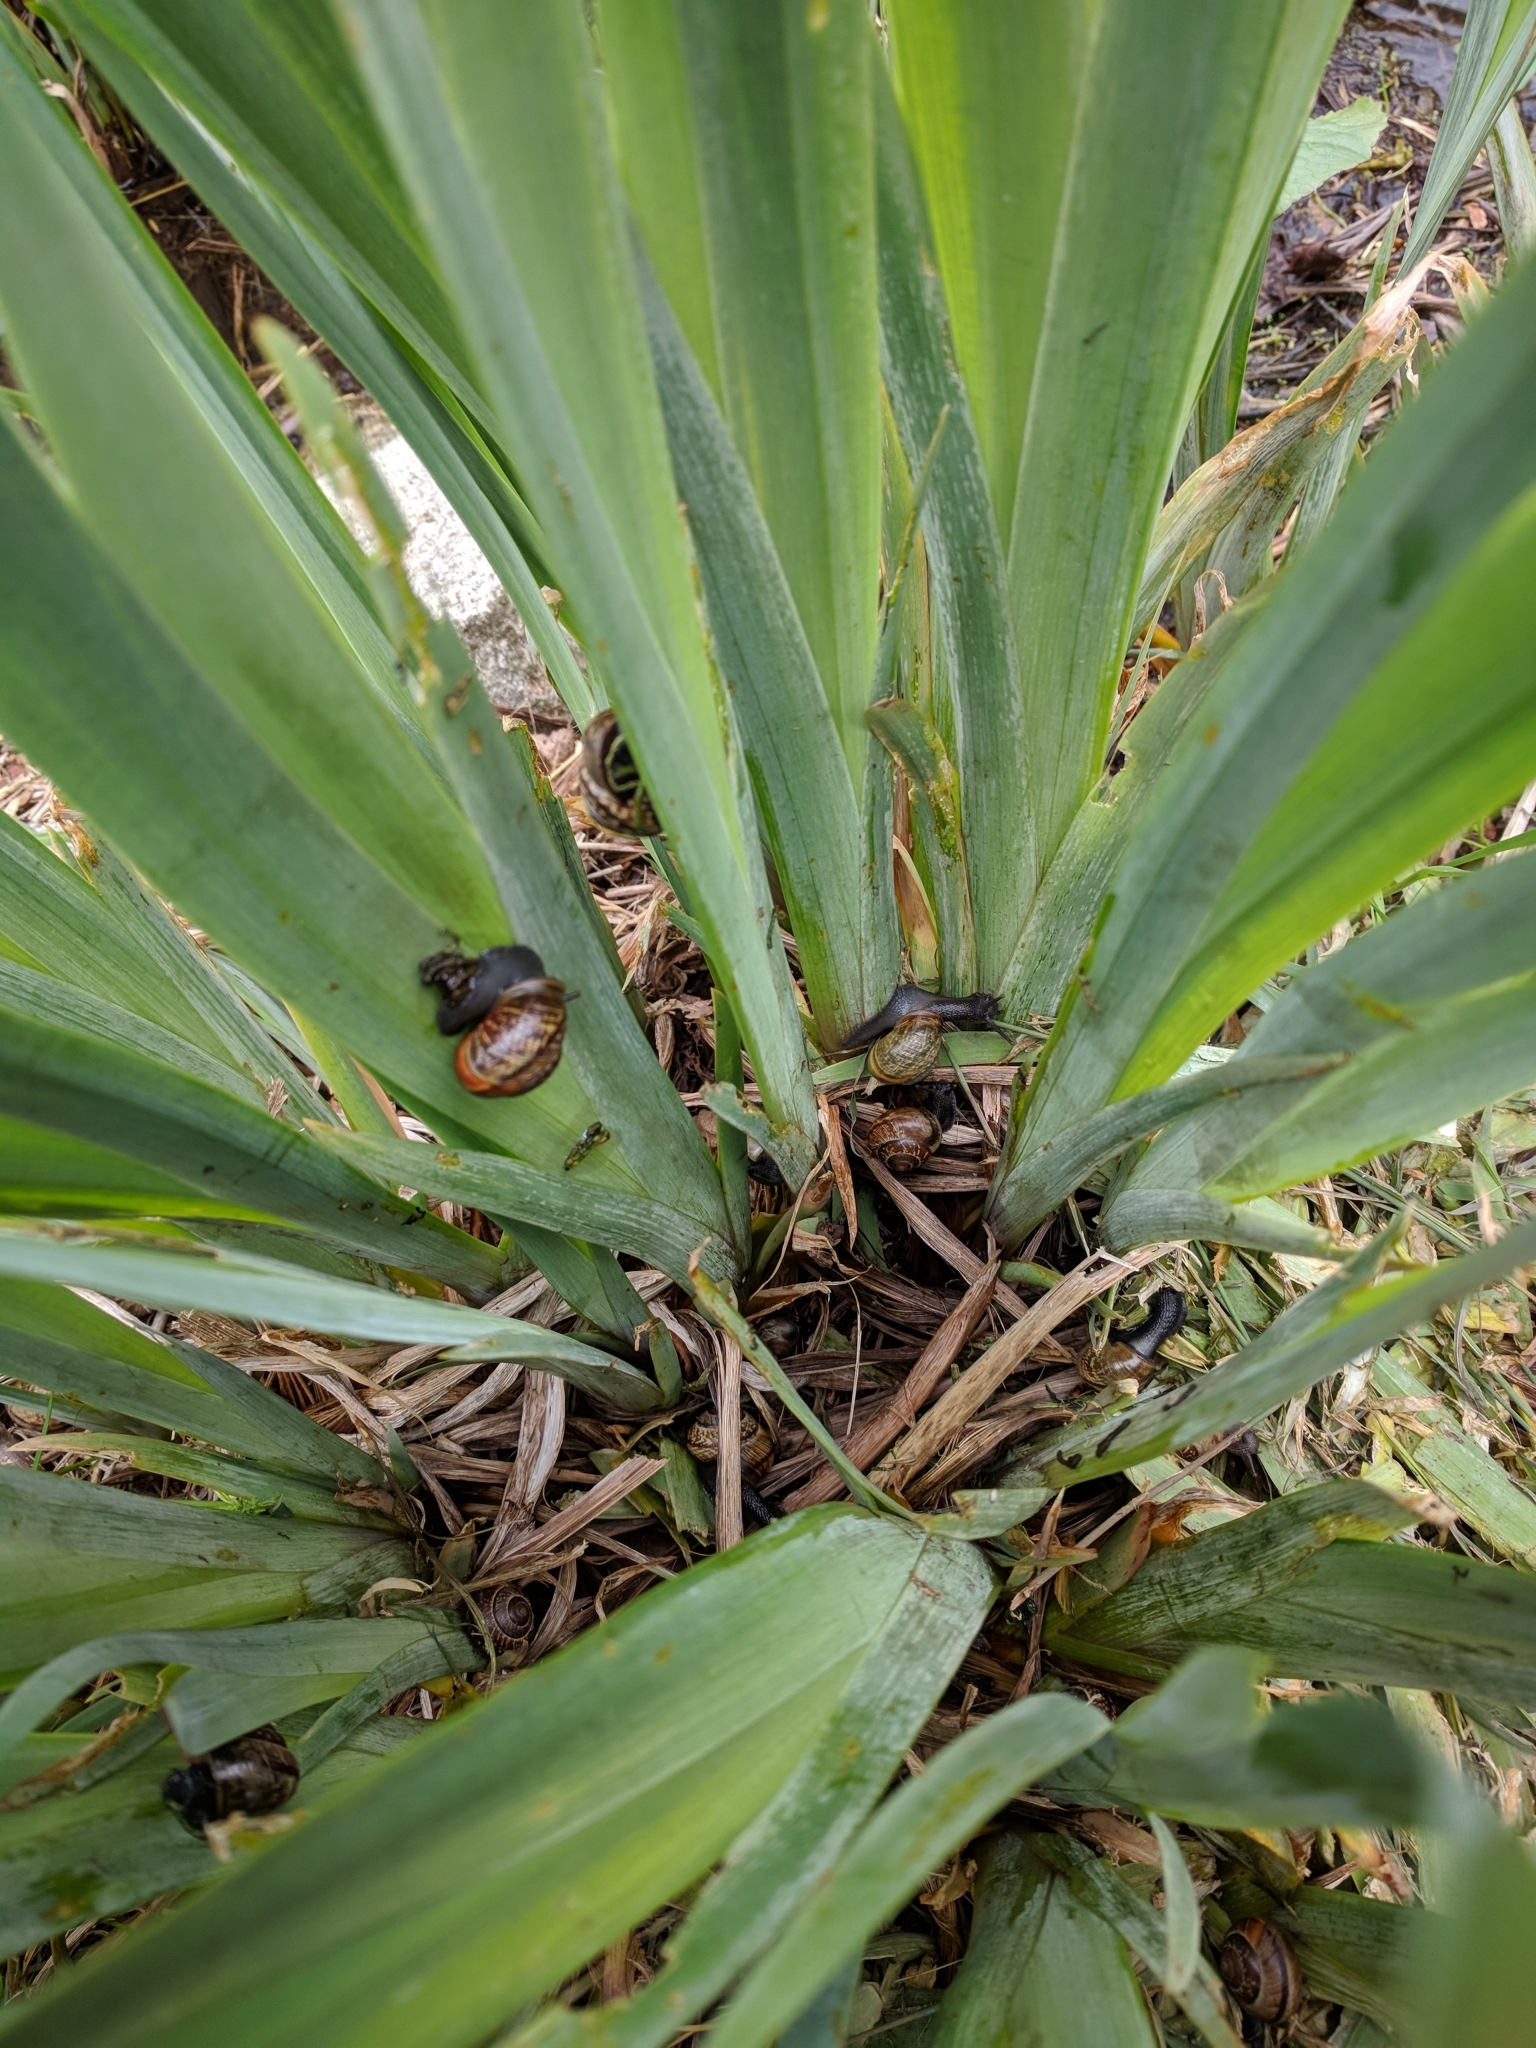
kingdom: Animalia
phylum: Mollusca
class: Gastropoda
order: Stylommatophora
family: Helicidae
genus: Arianta
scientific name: Arianta arbustorum
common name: Copse snail
